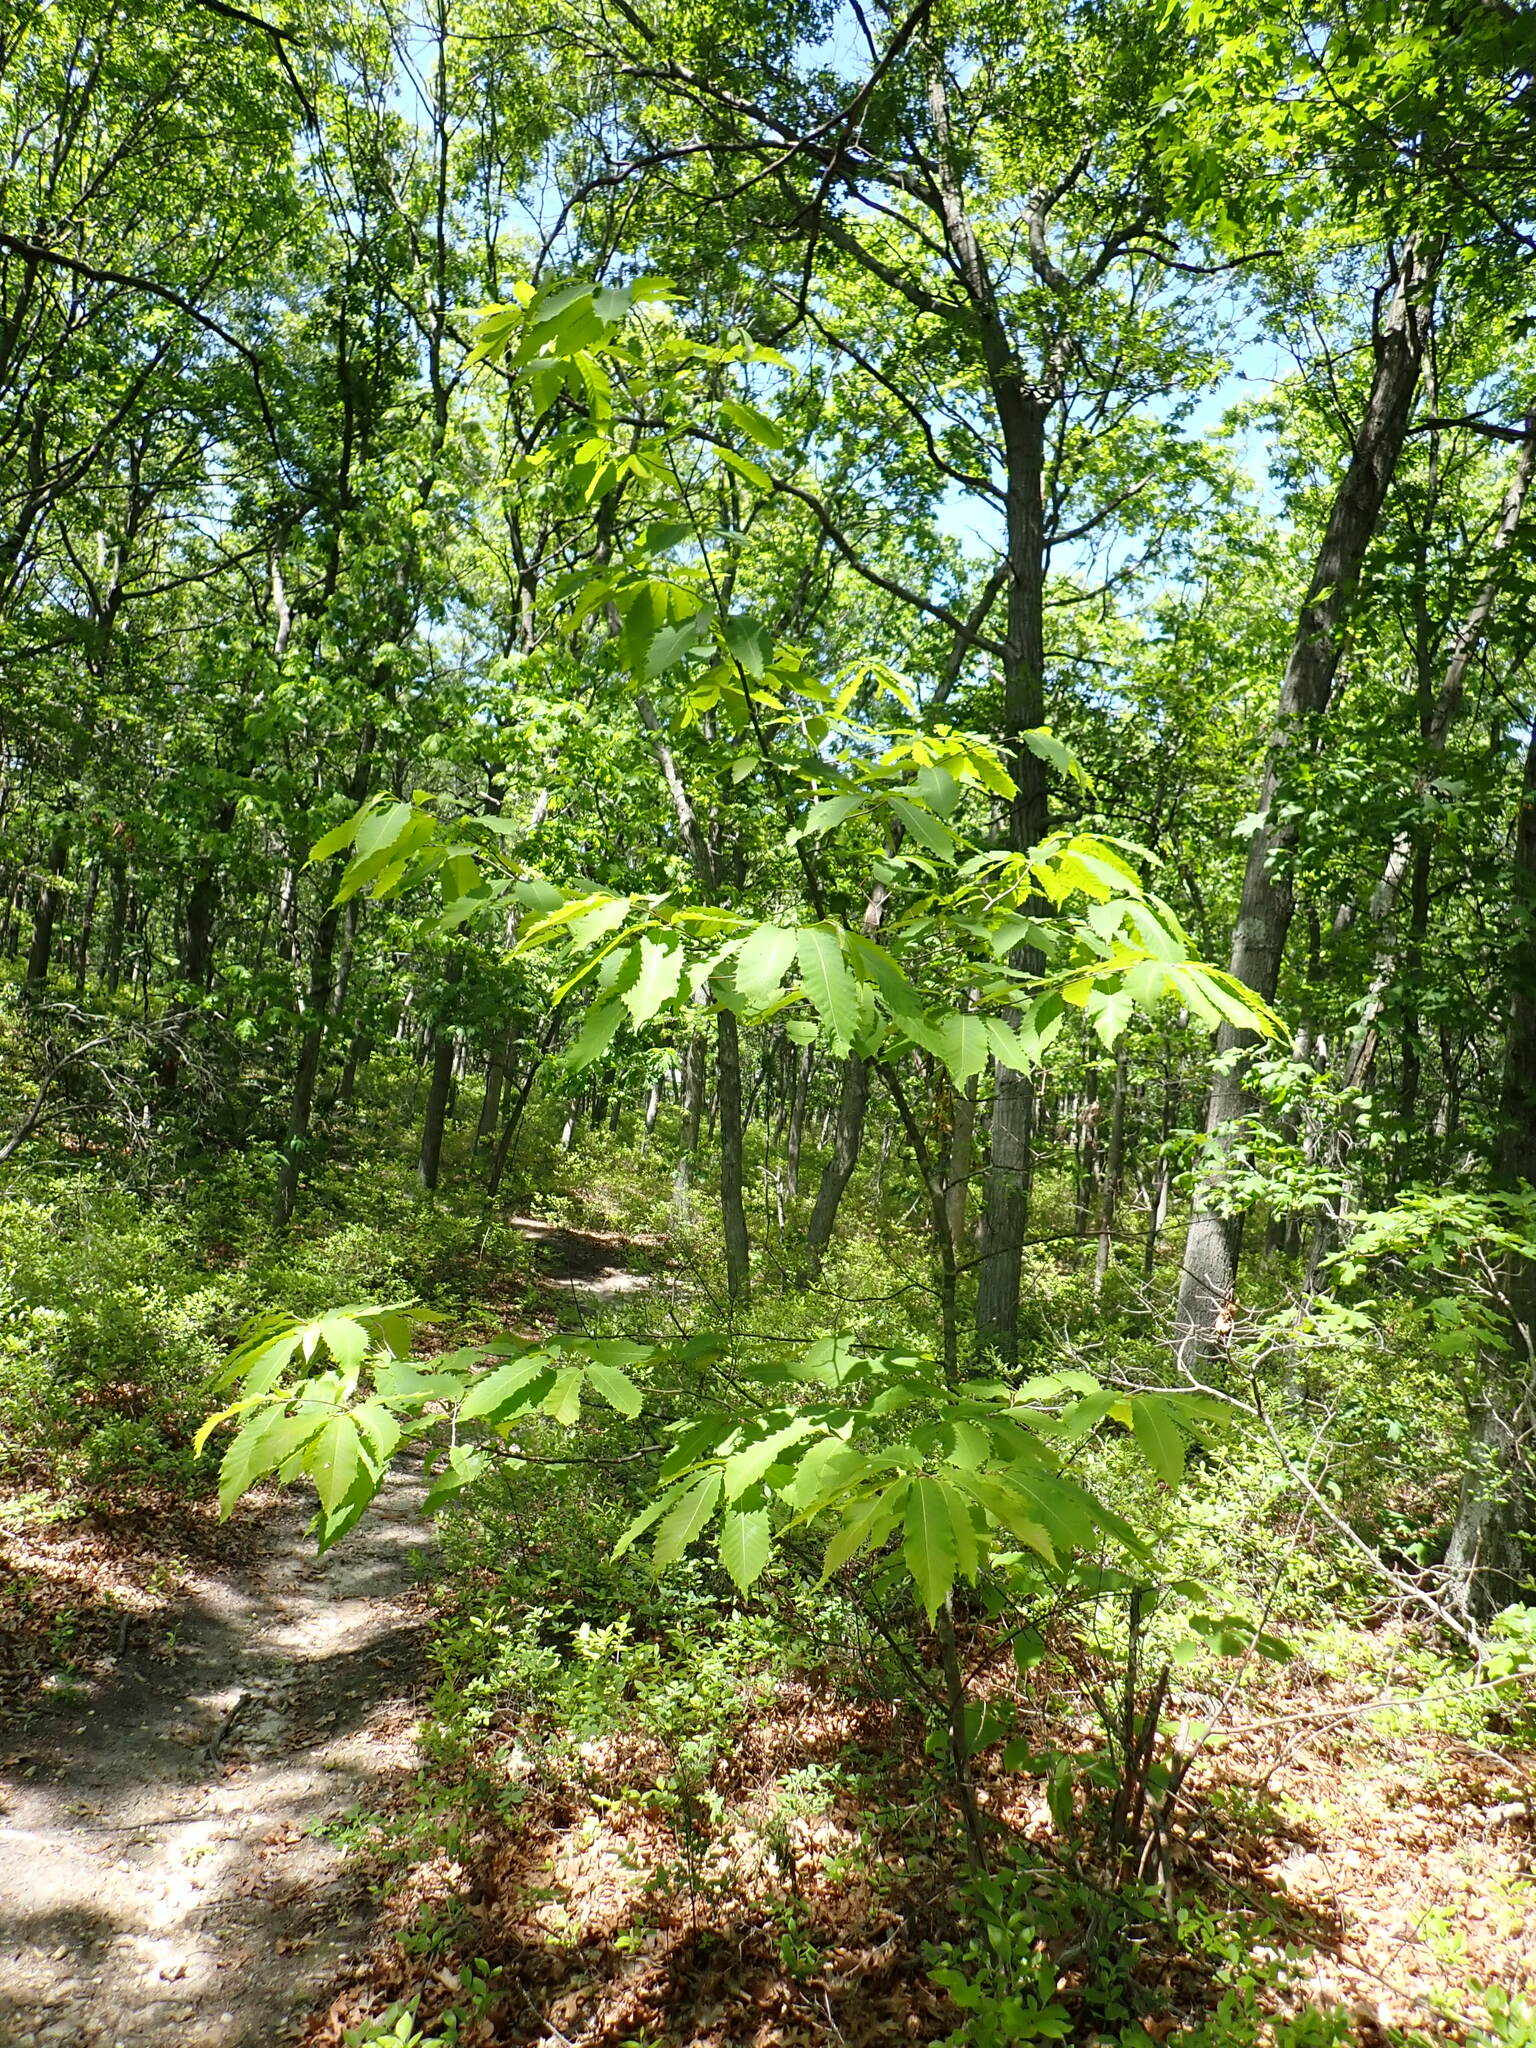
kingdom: Plantae
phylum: Tracheophyta
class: Magnoliopsida
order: Fagales
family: Fagaceae
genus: Castanea
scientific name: Castanea dentata
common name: American chestnut
